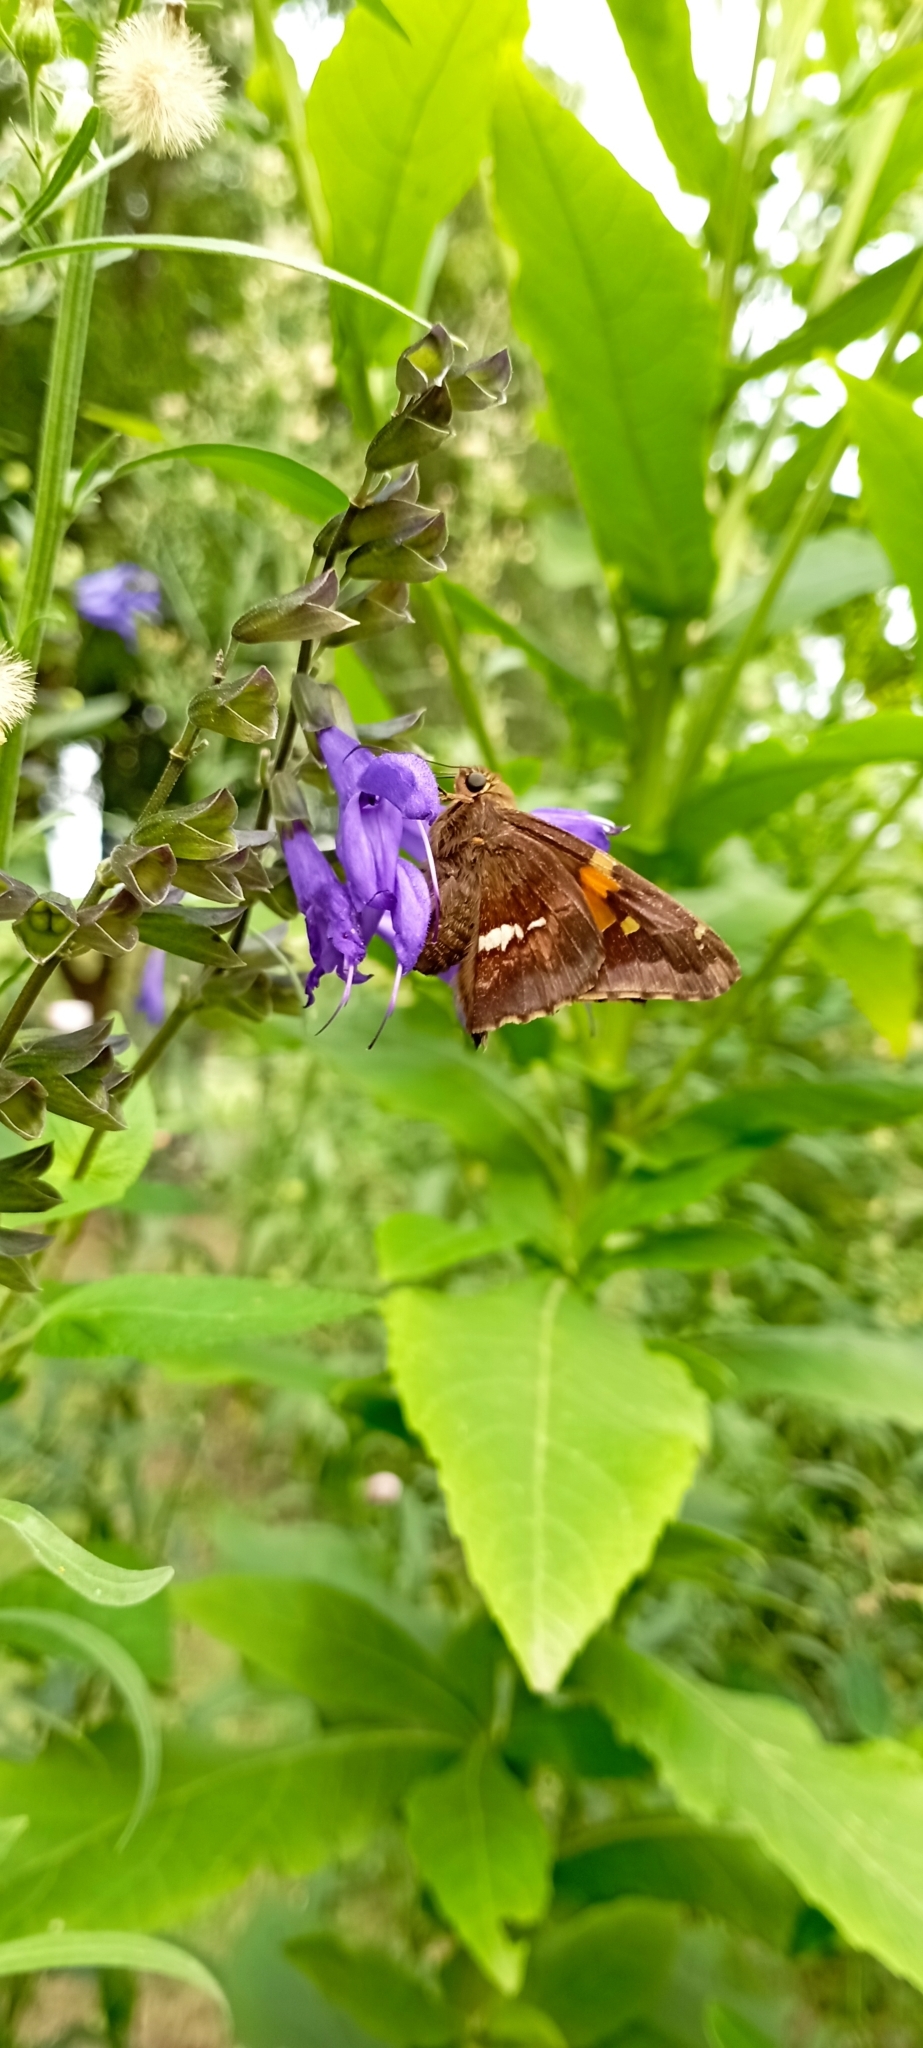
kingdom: Animalia
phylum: Arthropoda
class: Insecta
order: Lepidoptera
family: Hesperiidae
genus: Epargyreus
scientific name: Epargyreus tmolis
